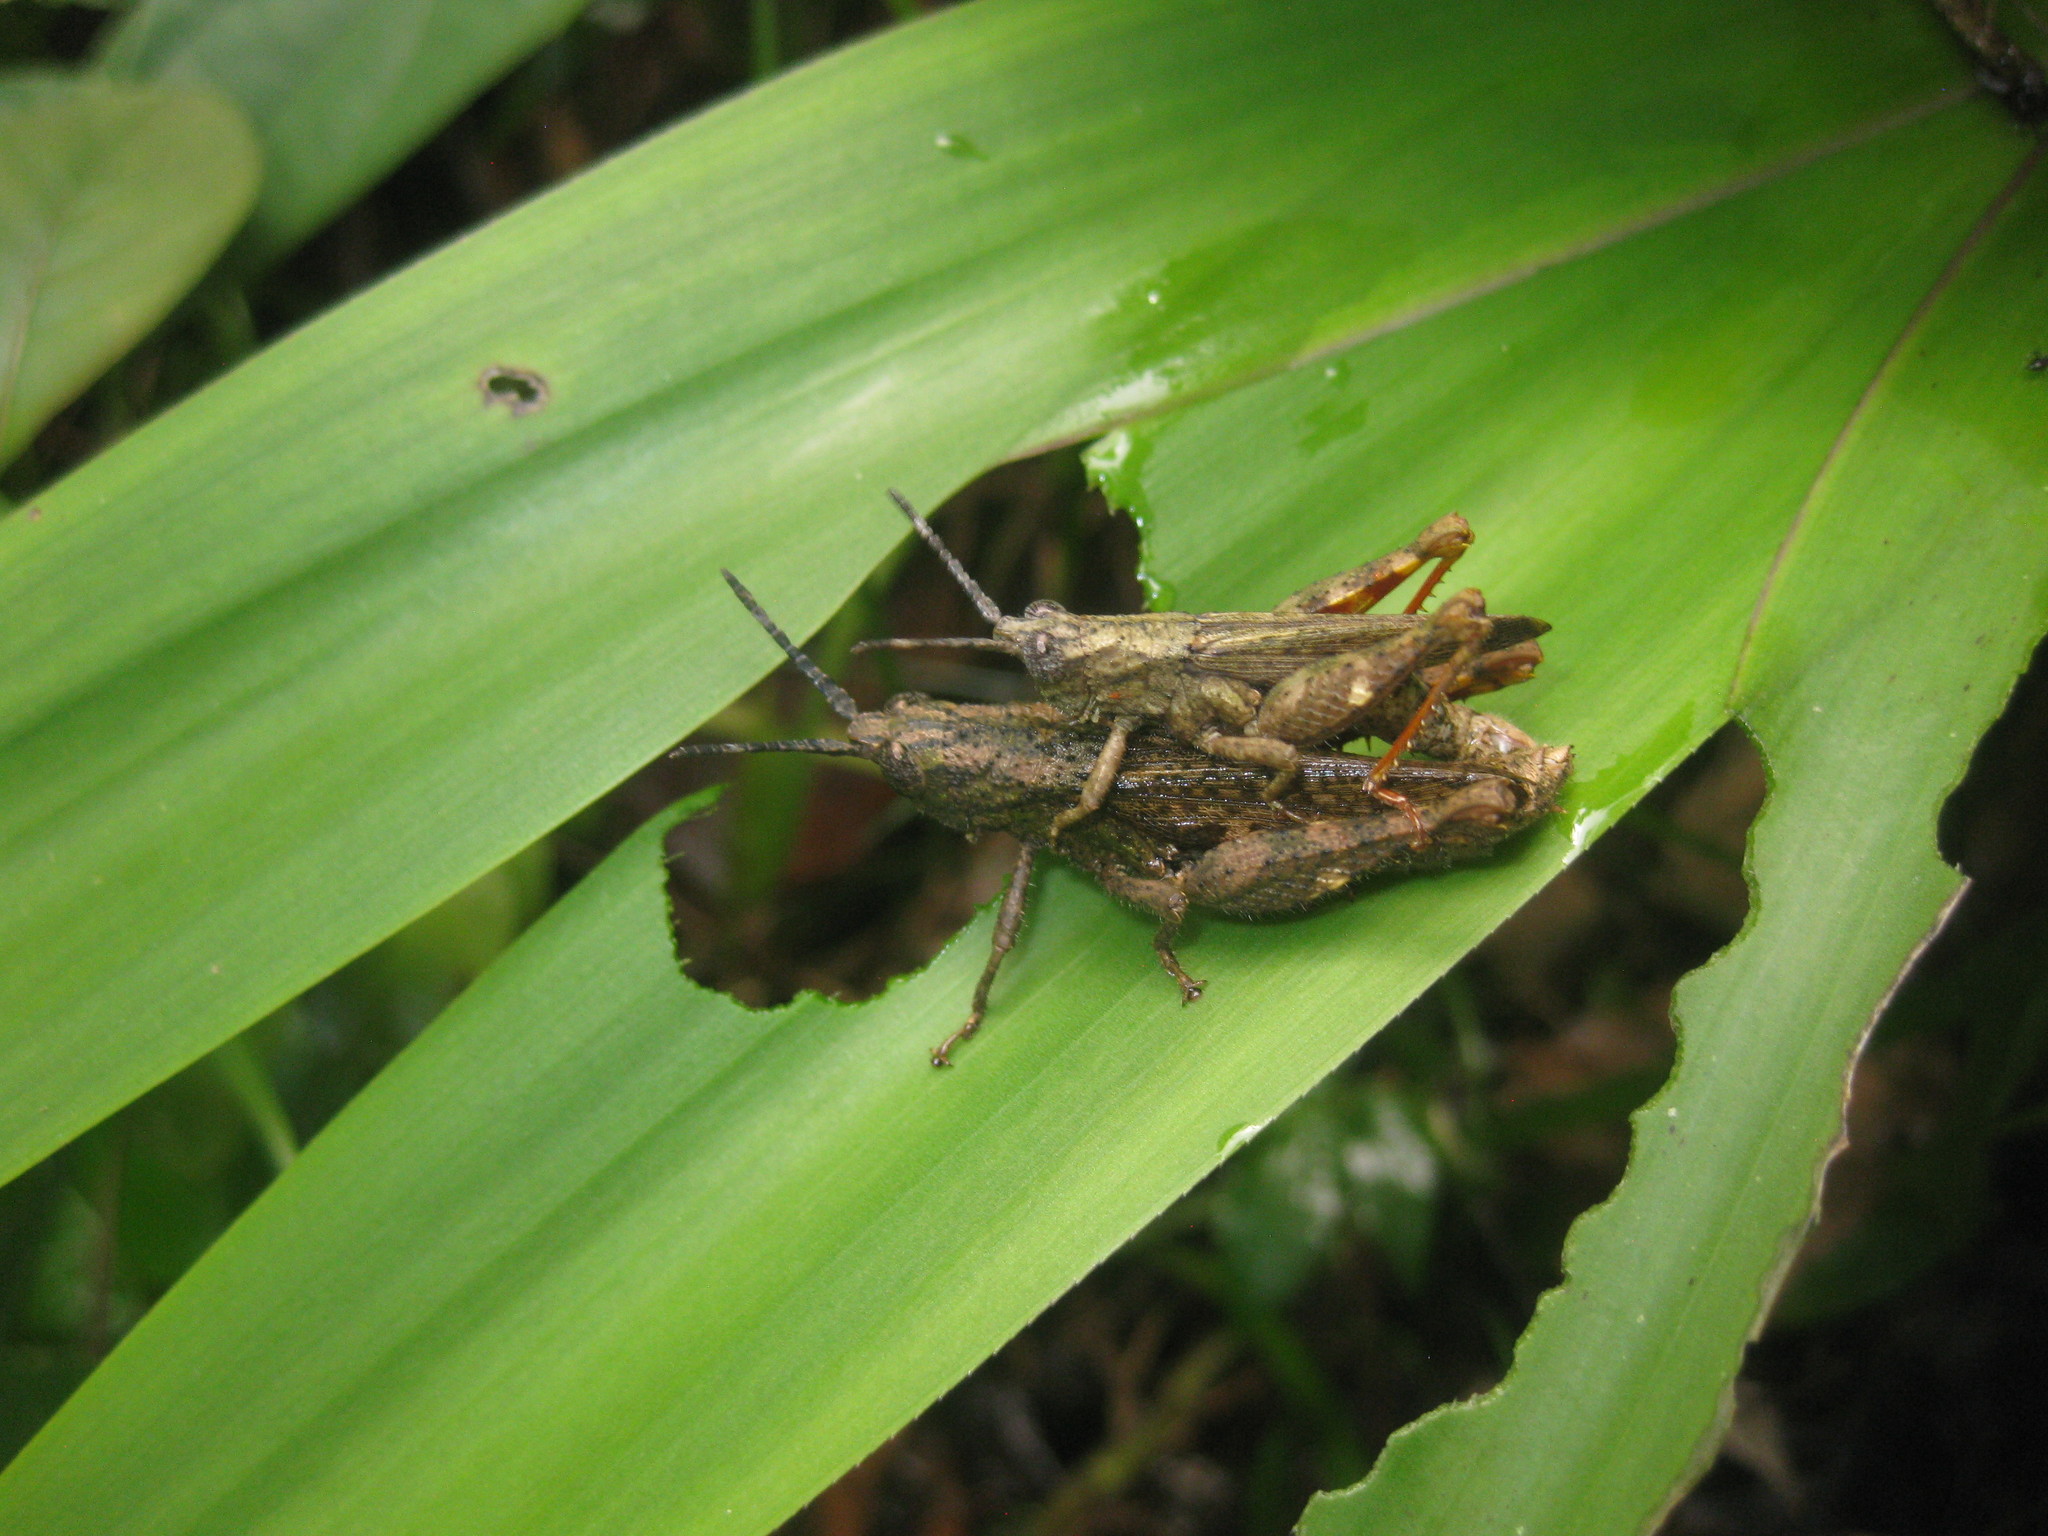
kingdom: Animalia
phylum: Arthropoda
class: Insecta
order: Orthoptera
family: Acrididae
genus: Lysacris
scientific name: Lysacris tibialis
